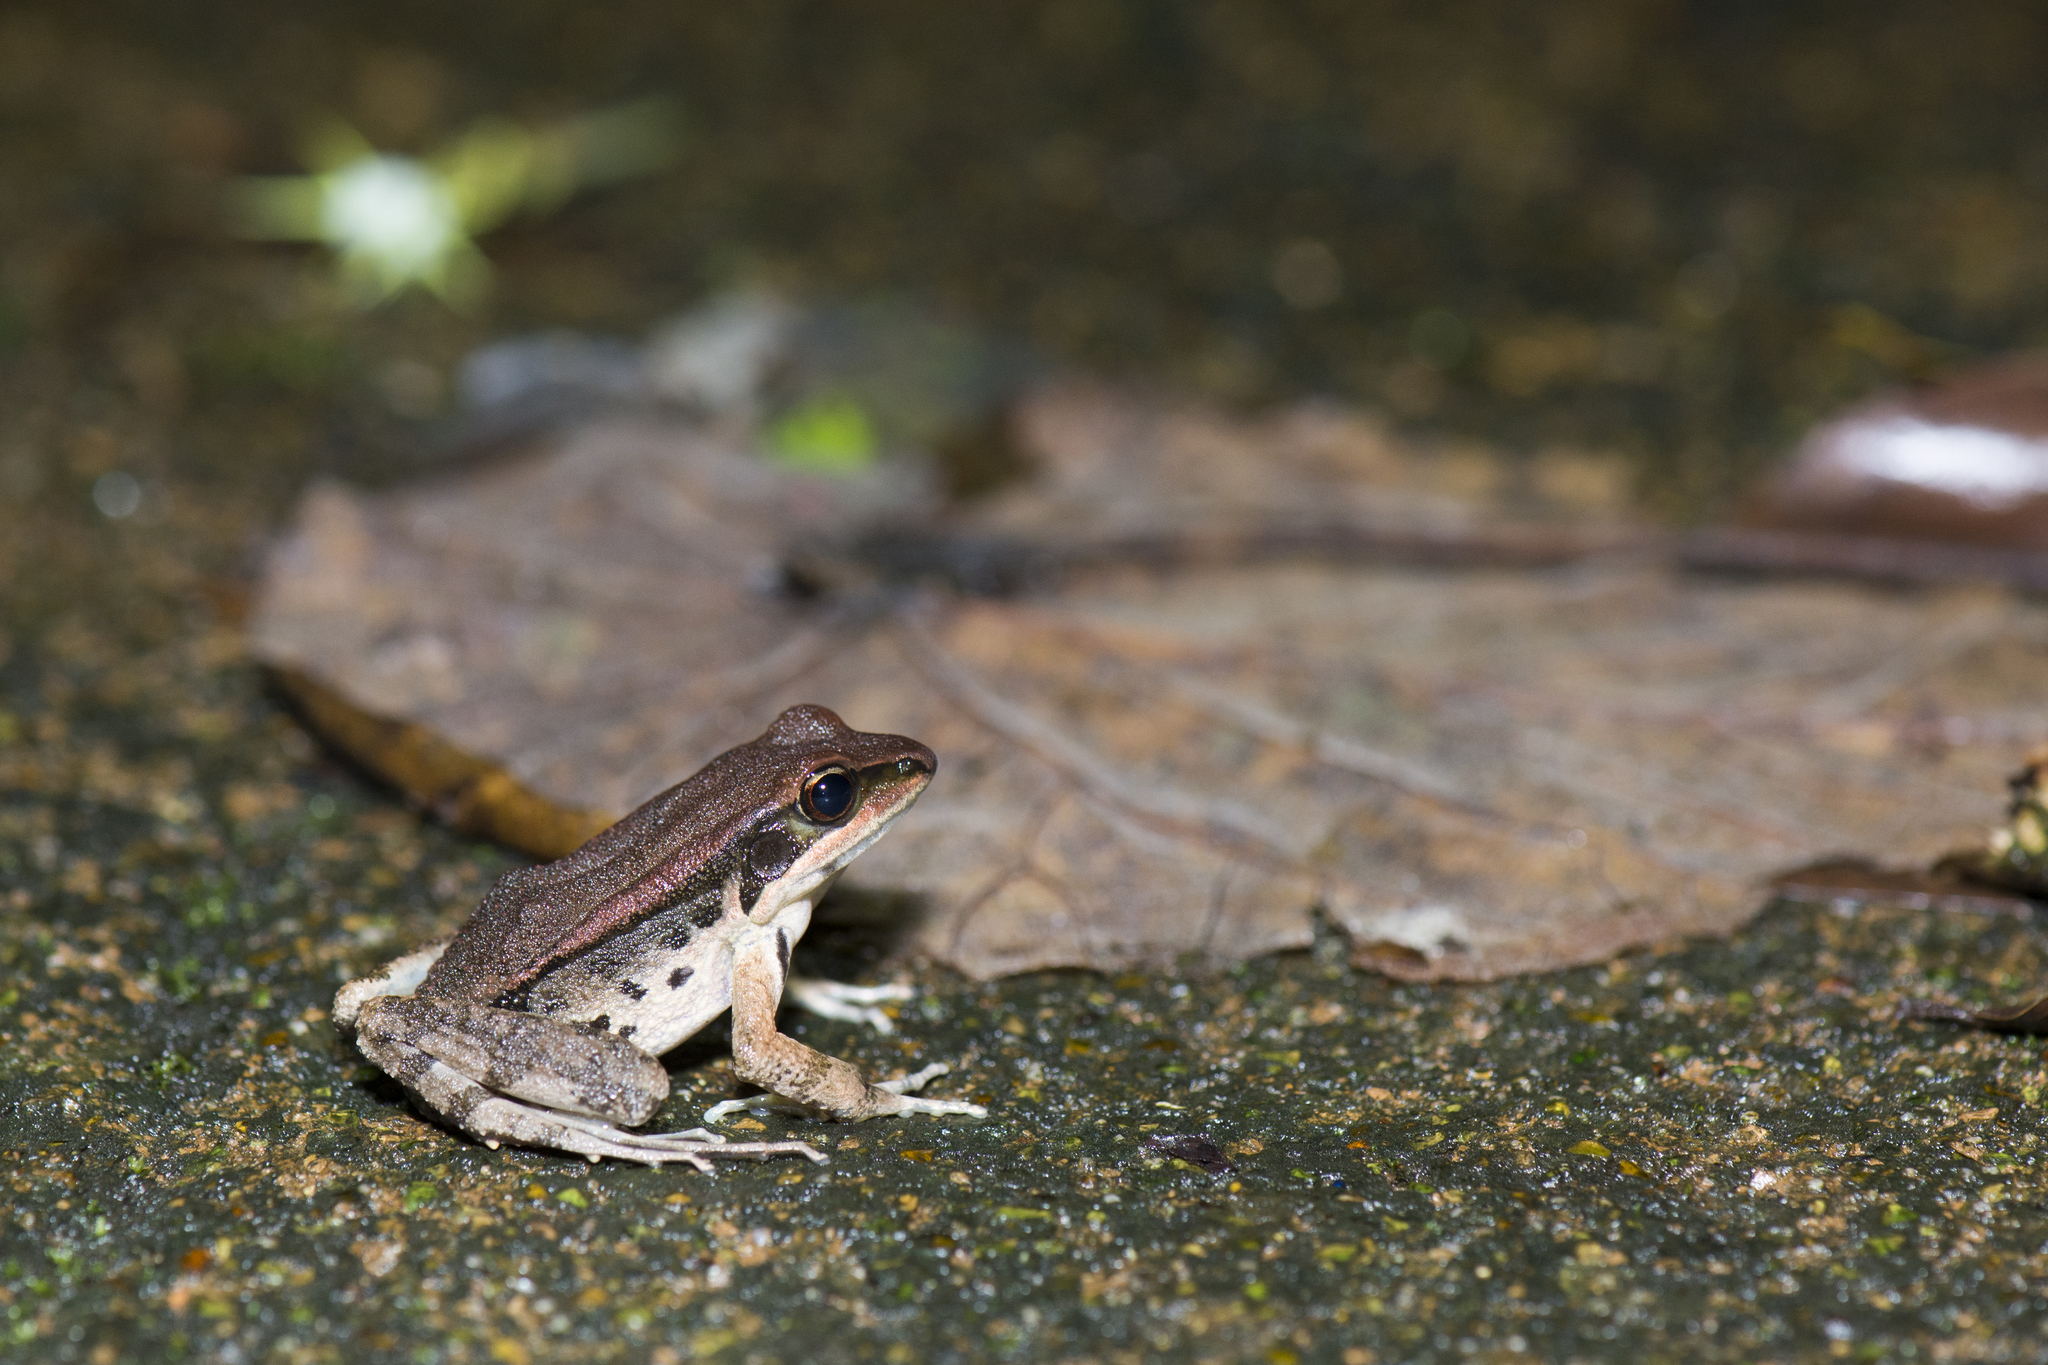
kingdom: Animalia
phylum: Chordata
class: Amphibia
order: Anura
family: Ranidae
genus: Hylarana
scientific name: Hylarana latouchii
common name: Broad-folded frog
